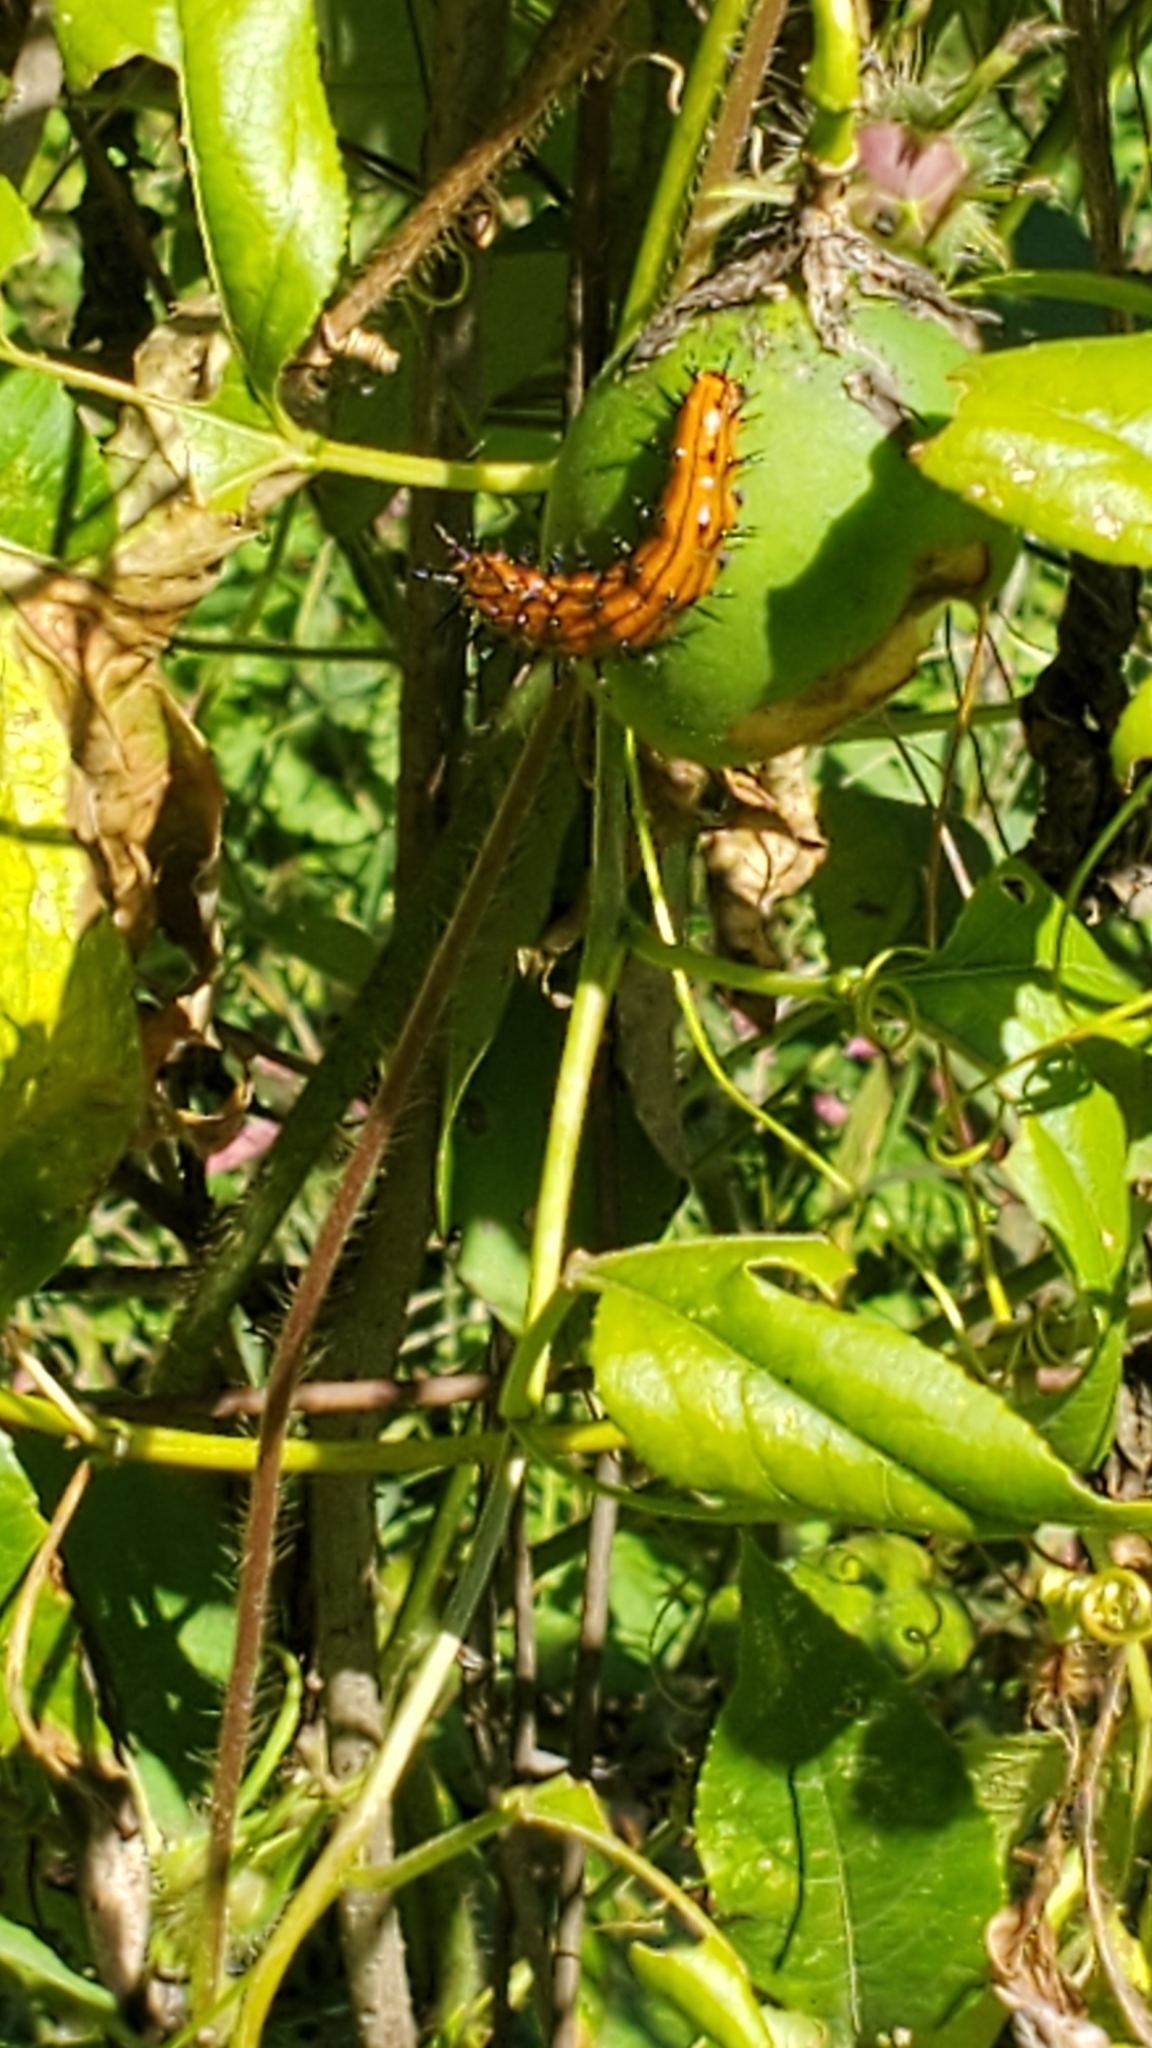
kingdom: Animalia
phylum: Arthropoda
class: Insecta
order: Lepidoptera
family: Nymphalidae
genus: Dione
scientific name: Dione vanillae
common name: Gulf fritillary
